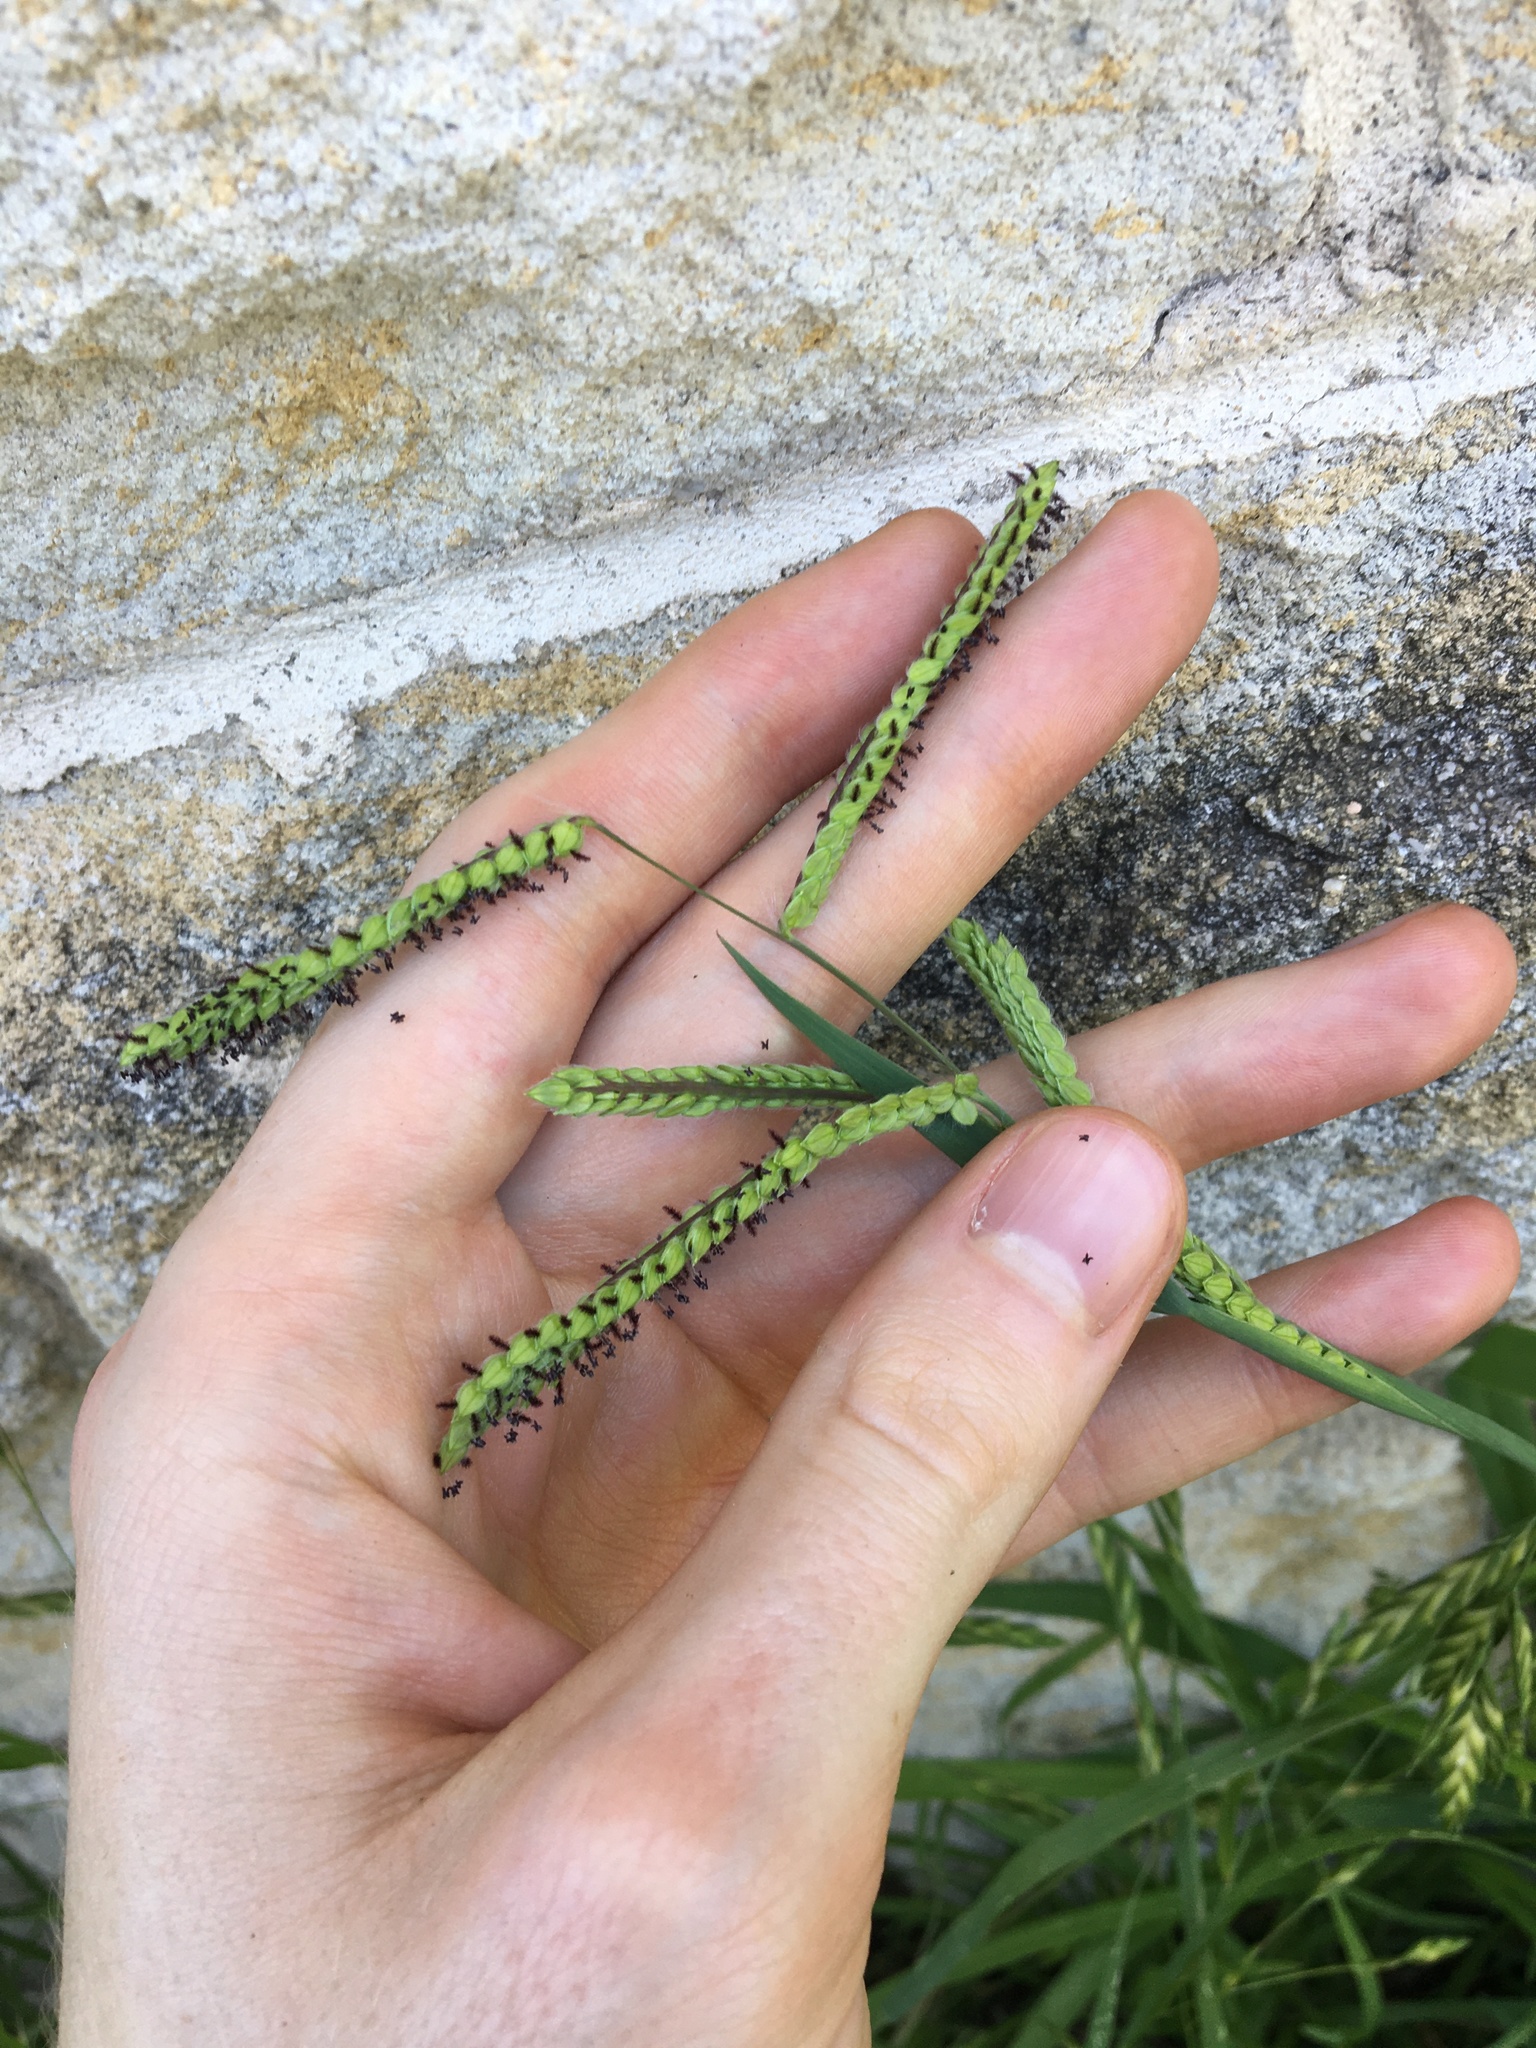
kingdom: Plantae
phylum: Tracheophyta
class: Liliopsida
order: Poales
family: Poaceae
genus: Paspalum
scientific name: Paspalum dilatatum
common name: Dallisgrass
